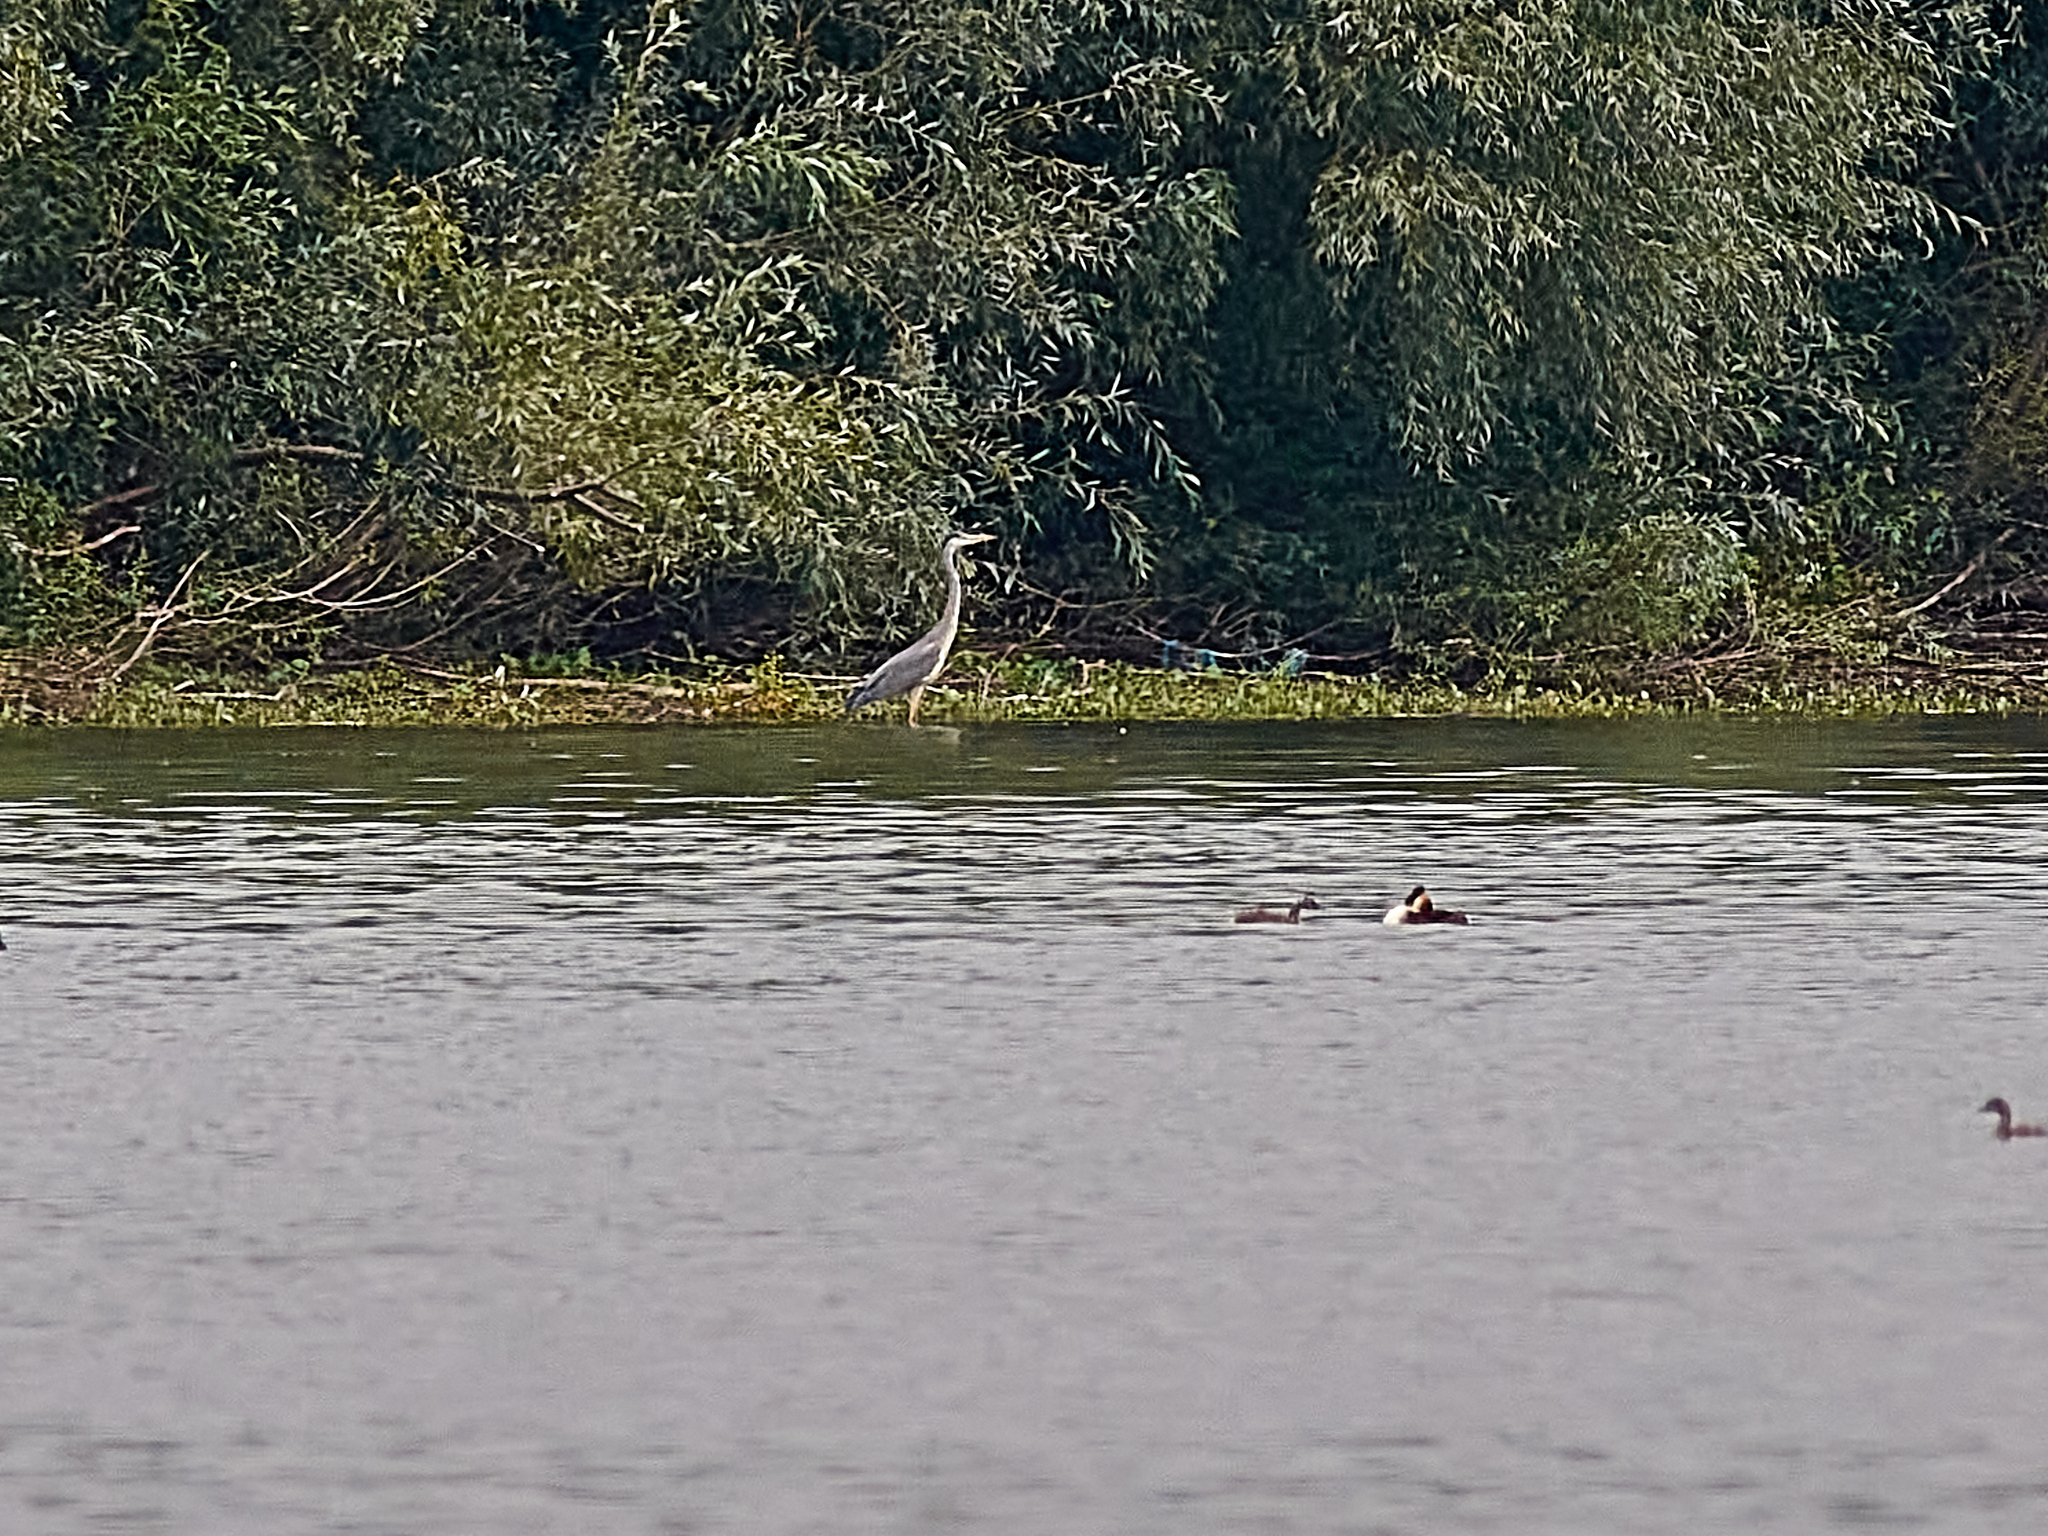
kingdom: Animalia
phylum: Chordata
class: Aves
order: Pelecaniformes
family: Ardeidae
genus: Ardea
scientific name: Ardea cinerea
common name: Grey heron
